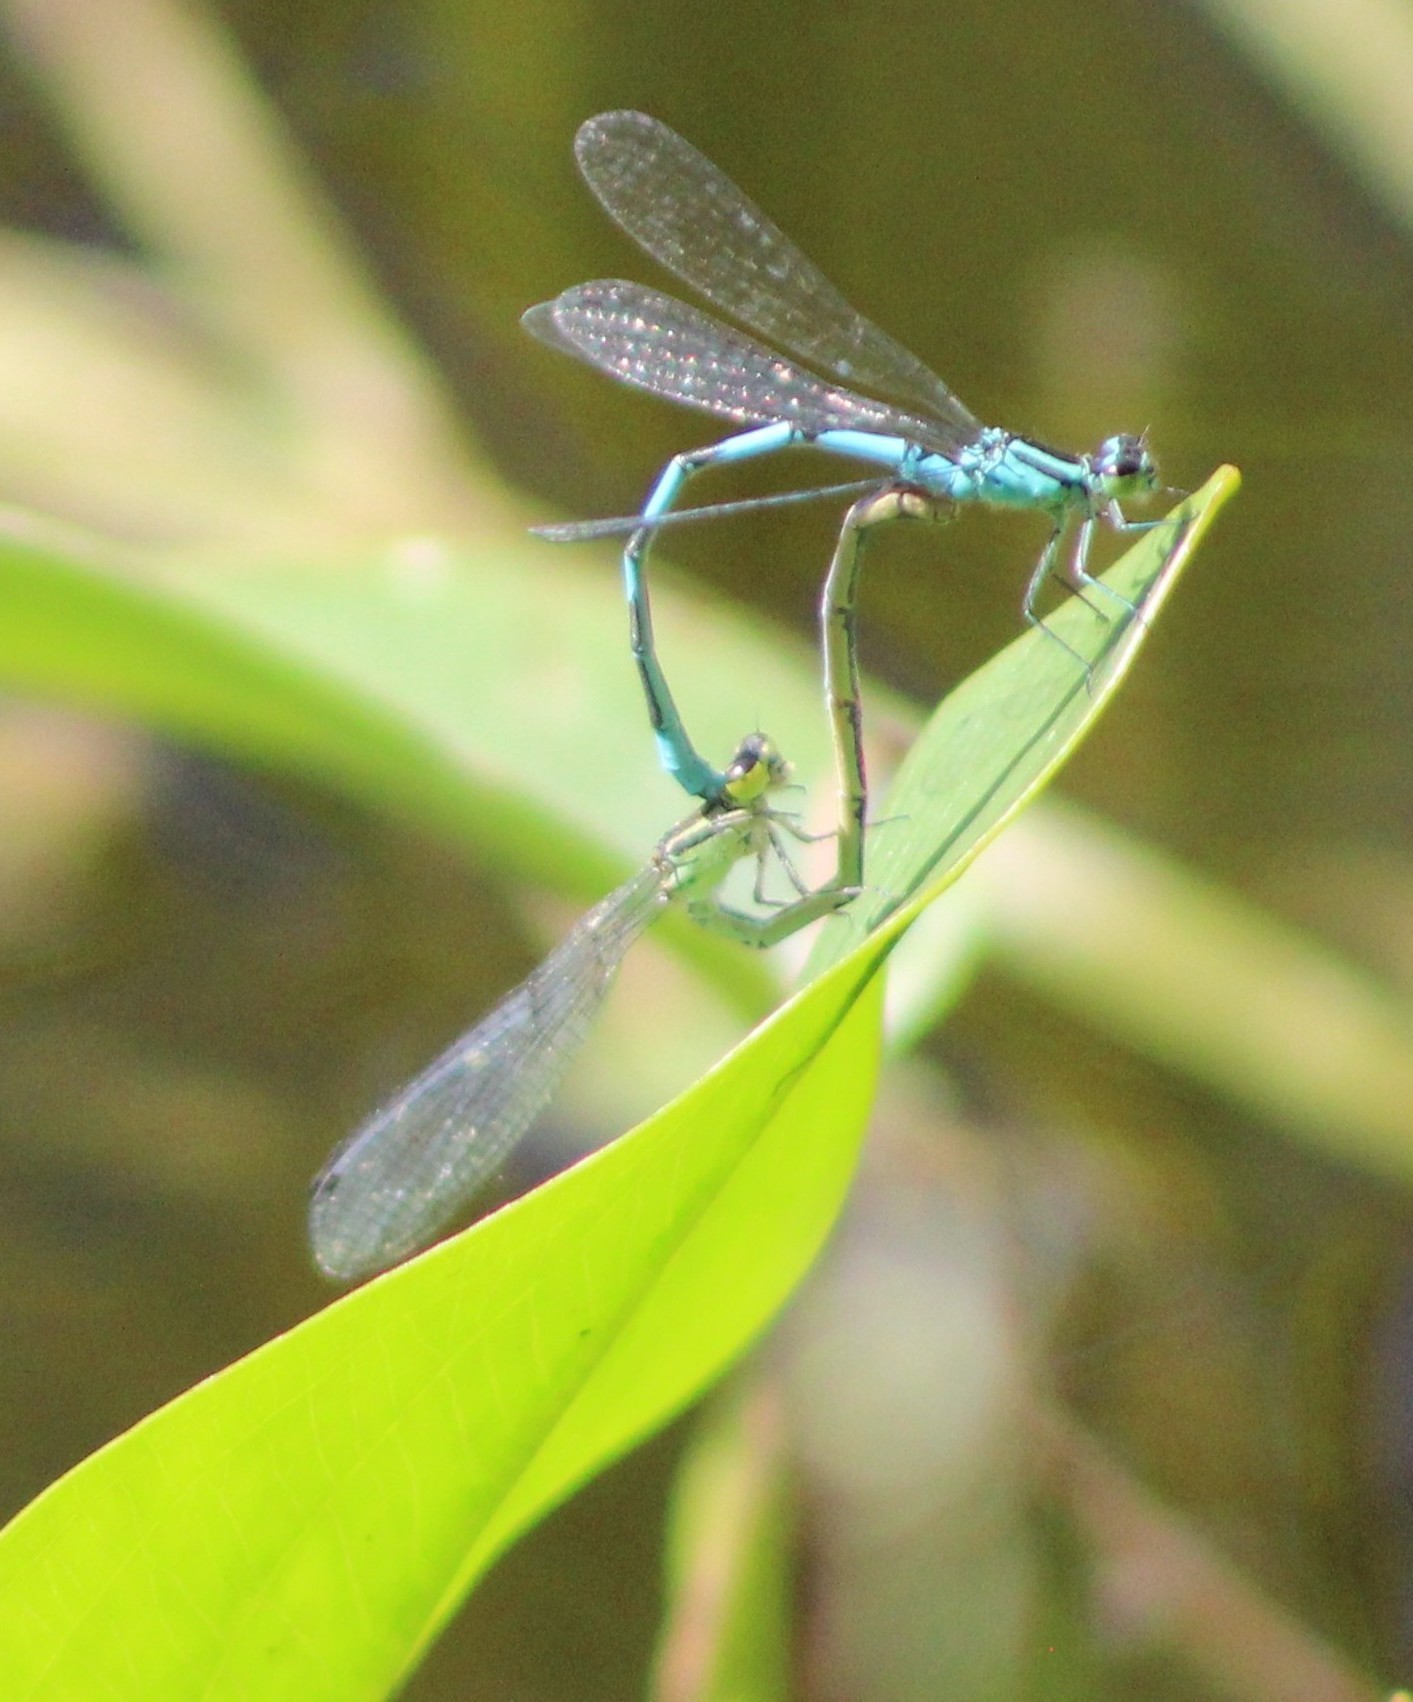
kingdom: Animalia
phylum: Arthropoda
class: Insecta
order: Odonata
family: Coenagrionidae
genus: Coenagrion
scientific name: Coenagrion johanssoni
